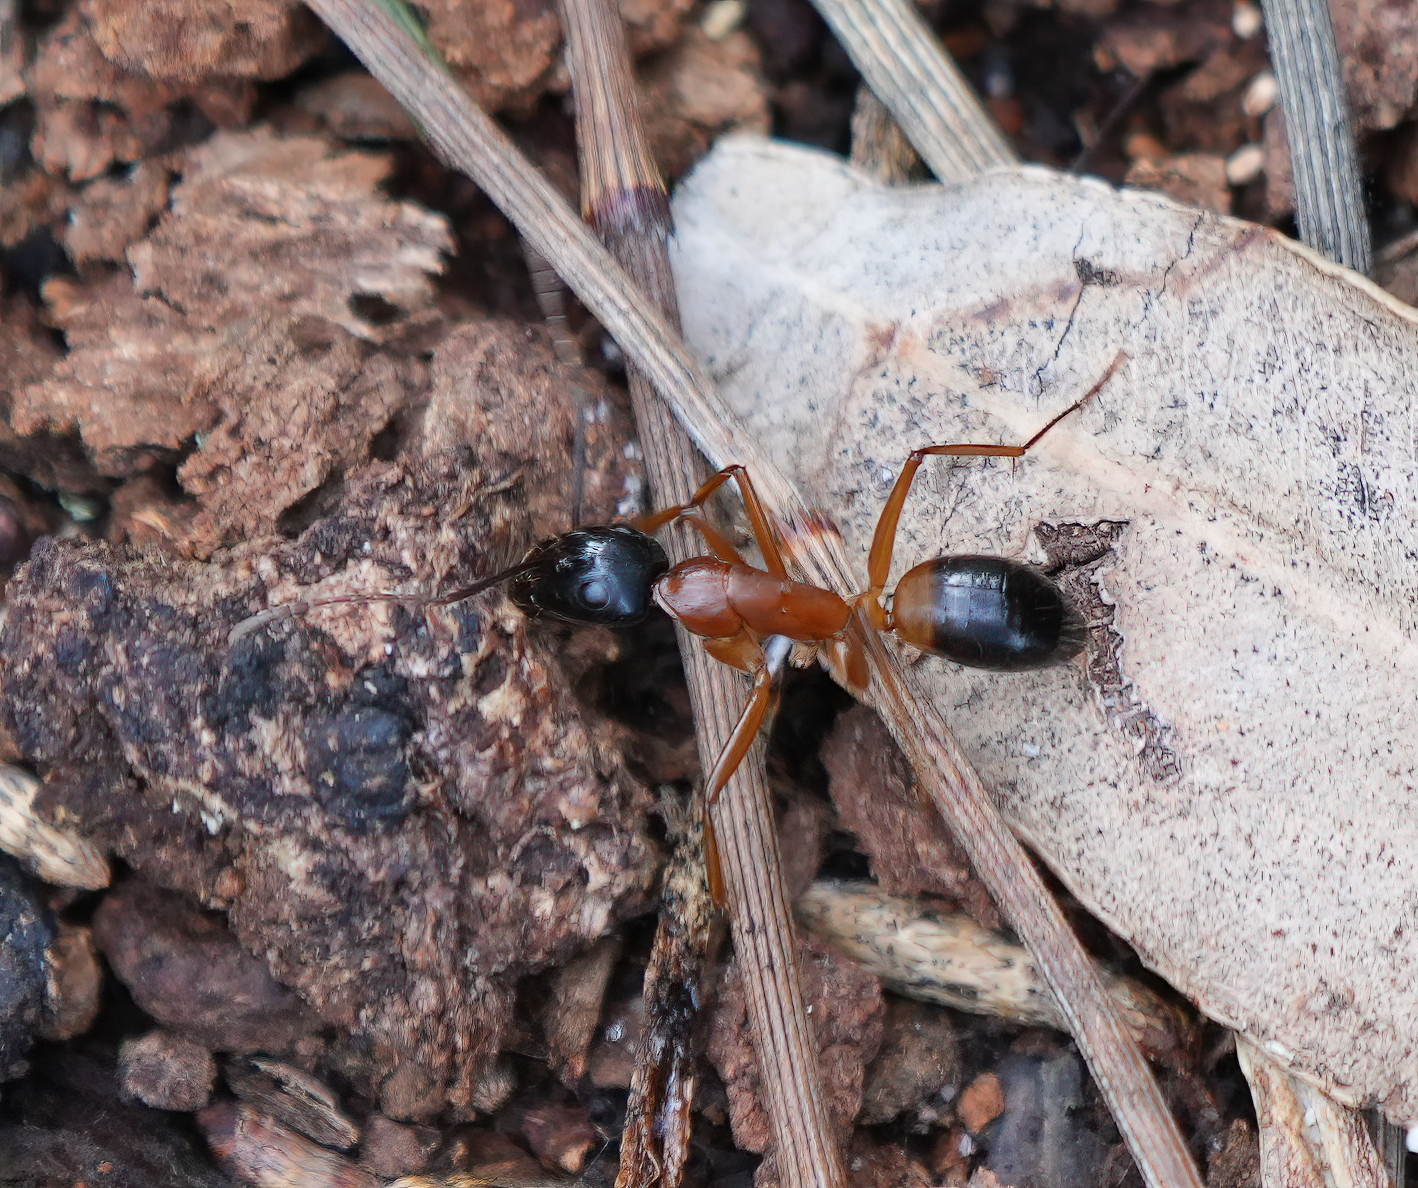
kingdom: Animalia
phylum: Arthropoda
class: Insecta
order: Hymenoptera
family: Formicidae
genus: Camponotus
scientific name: Camponotus consobrinus
